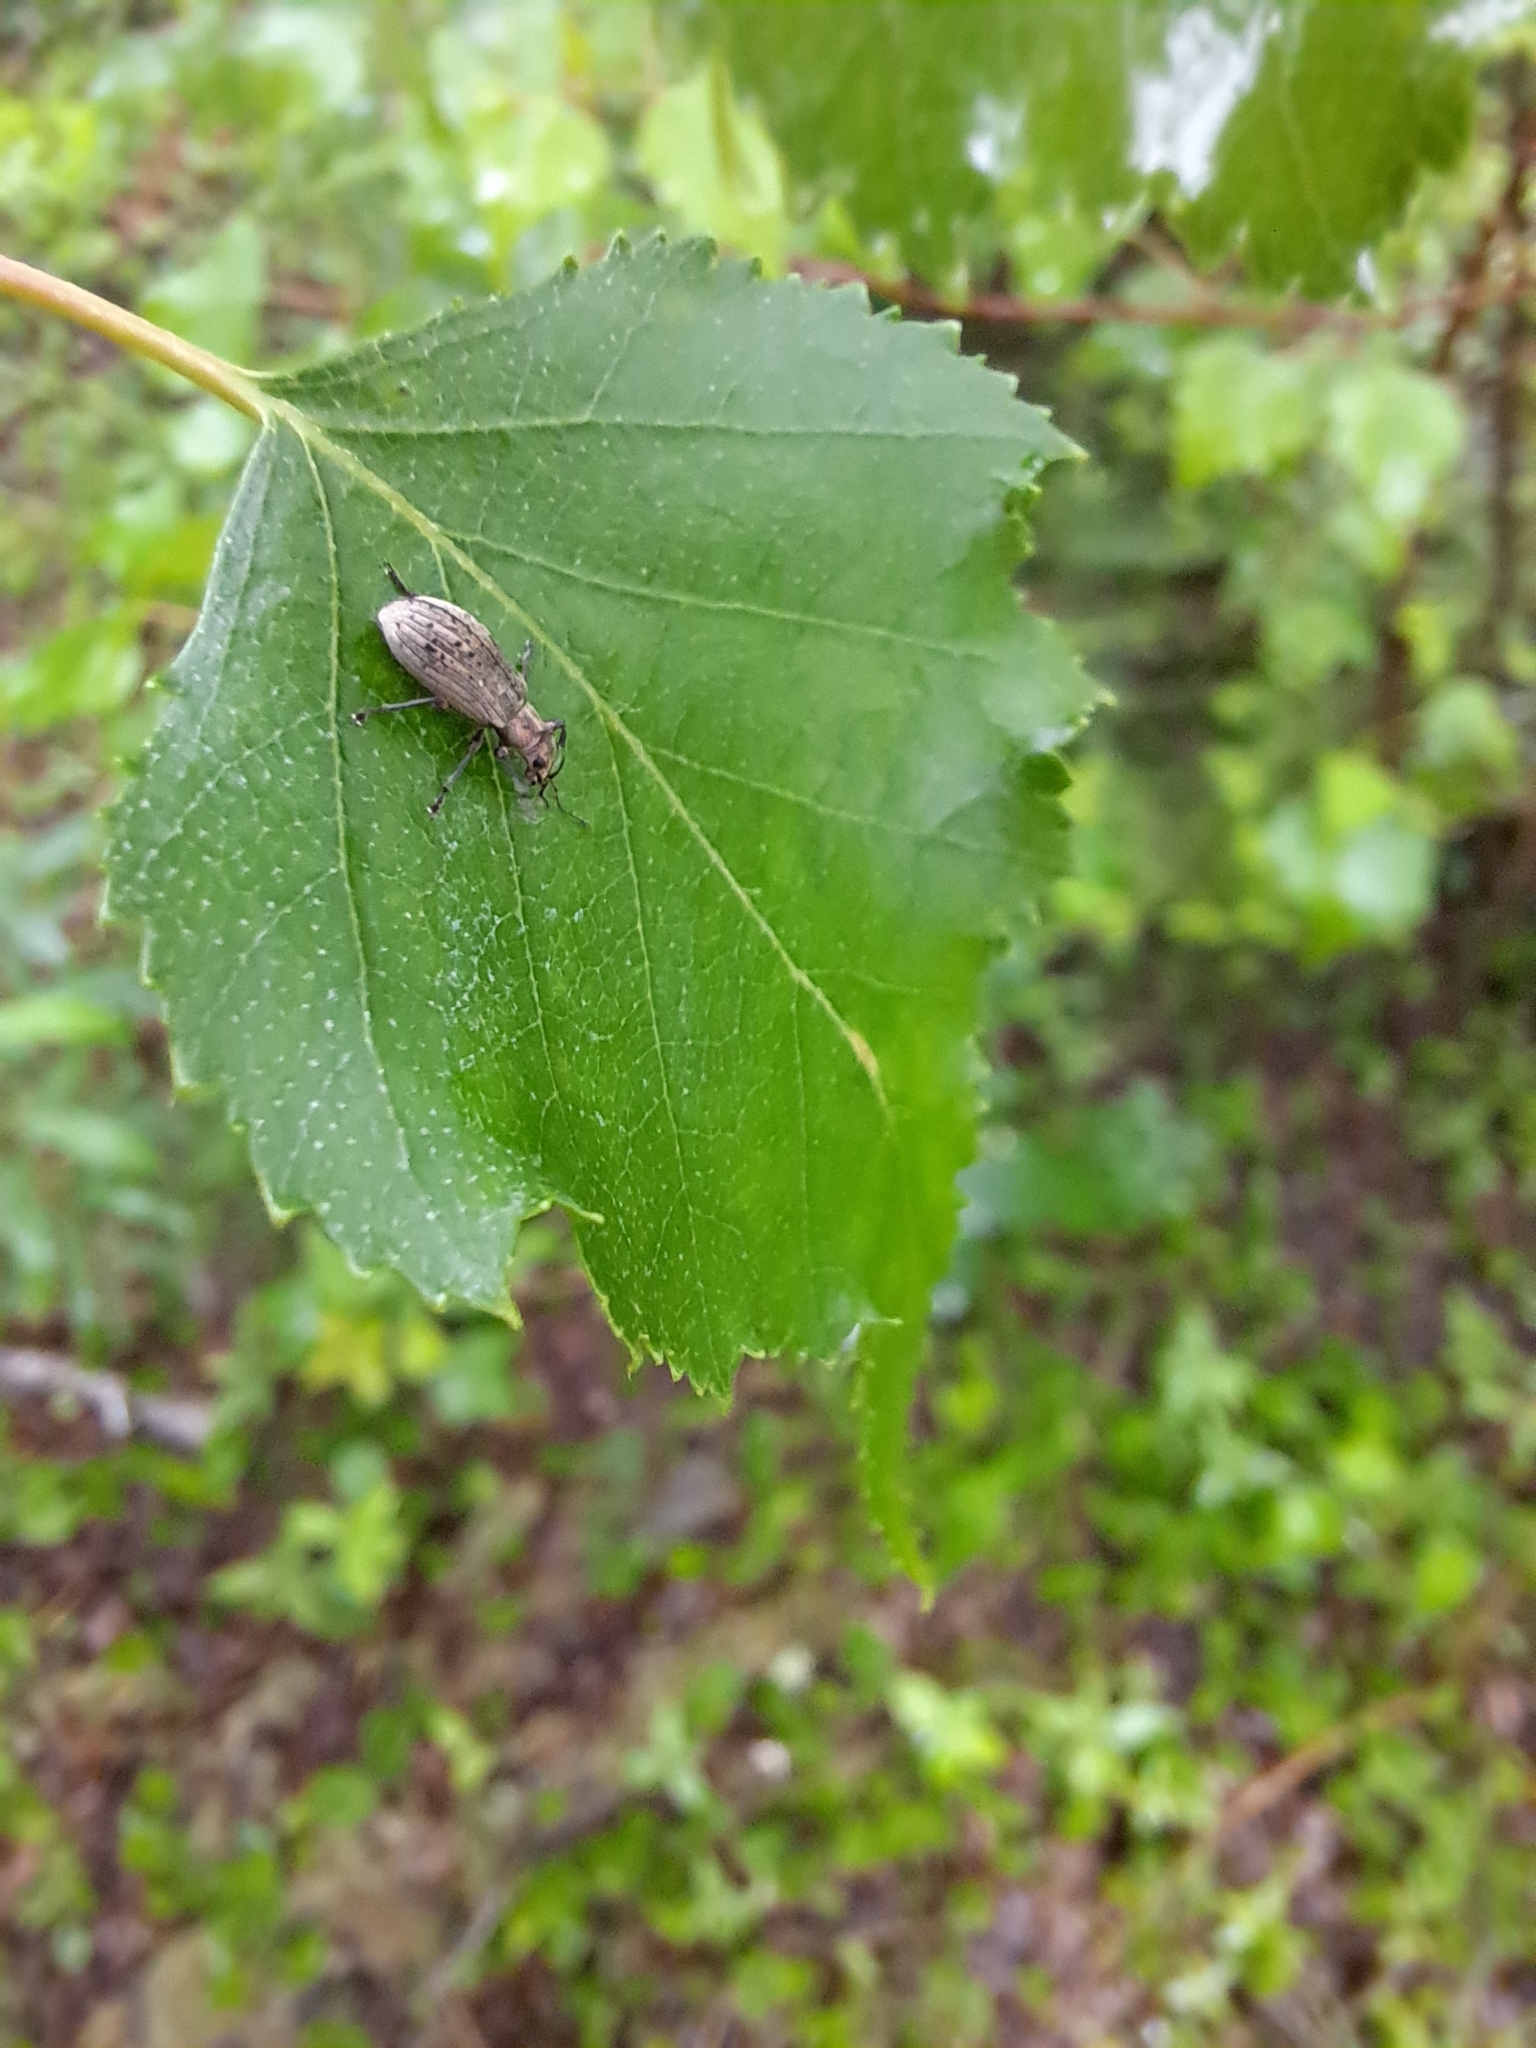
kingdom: Animalia
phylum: Arthropoda
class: Insecta
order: Coleoptera
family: Curculionidae
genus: Polydrusus
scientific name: Polydrusus cervinus
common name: Weevil
